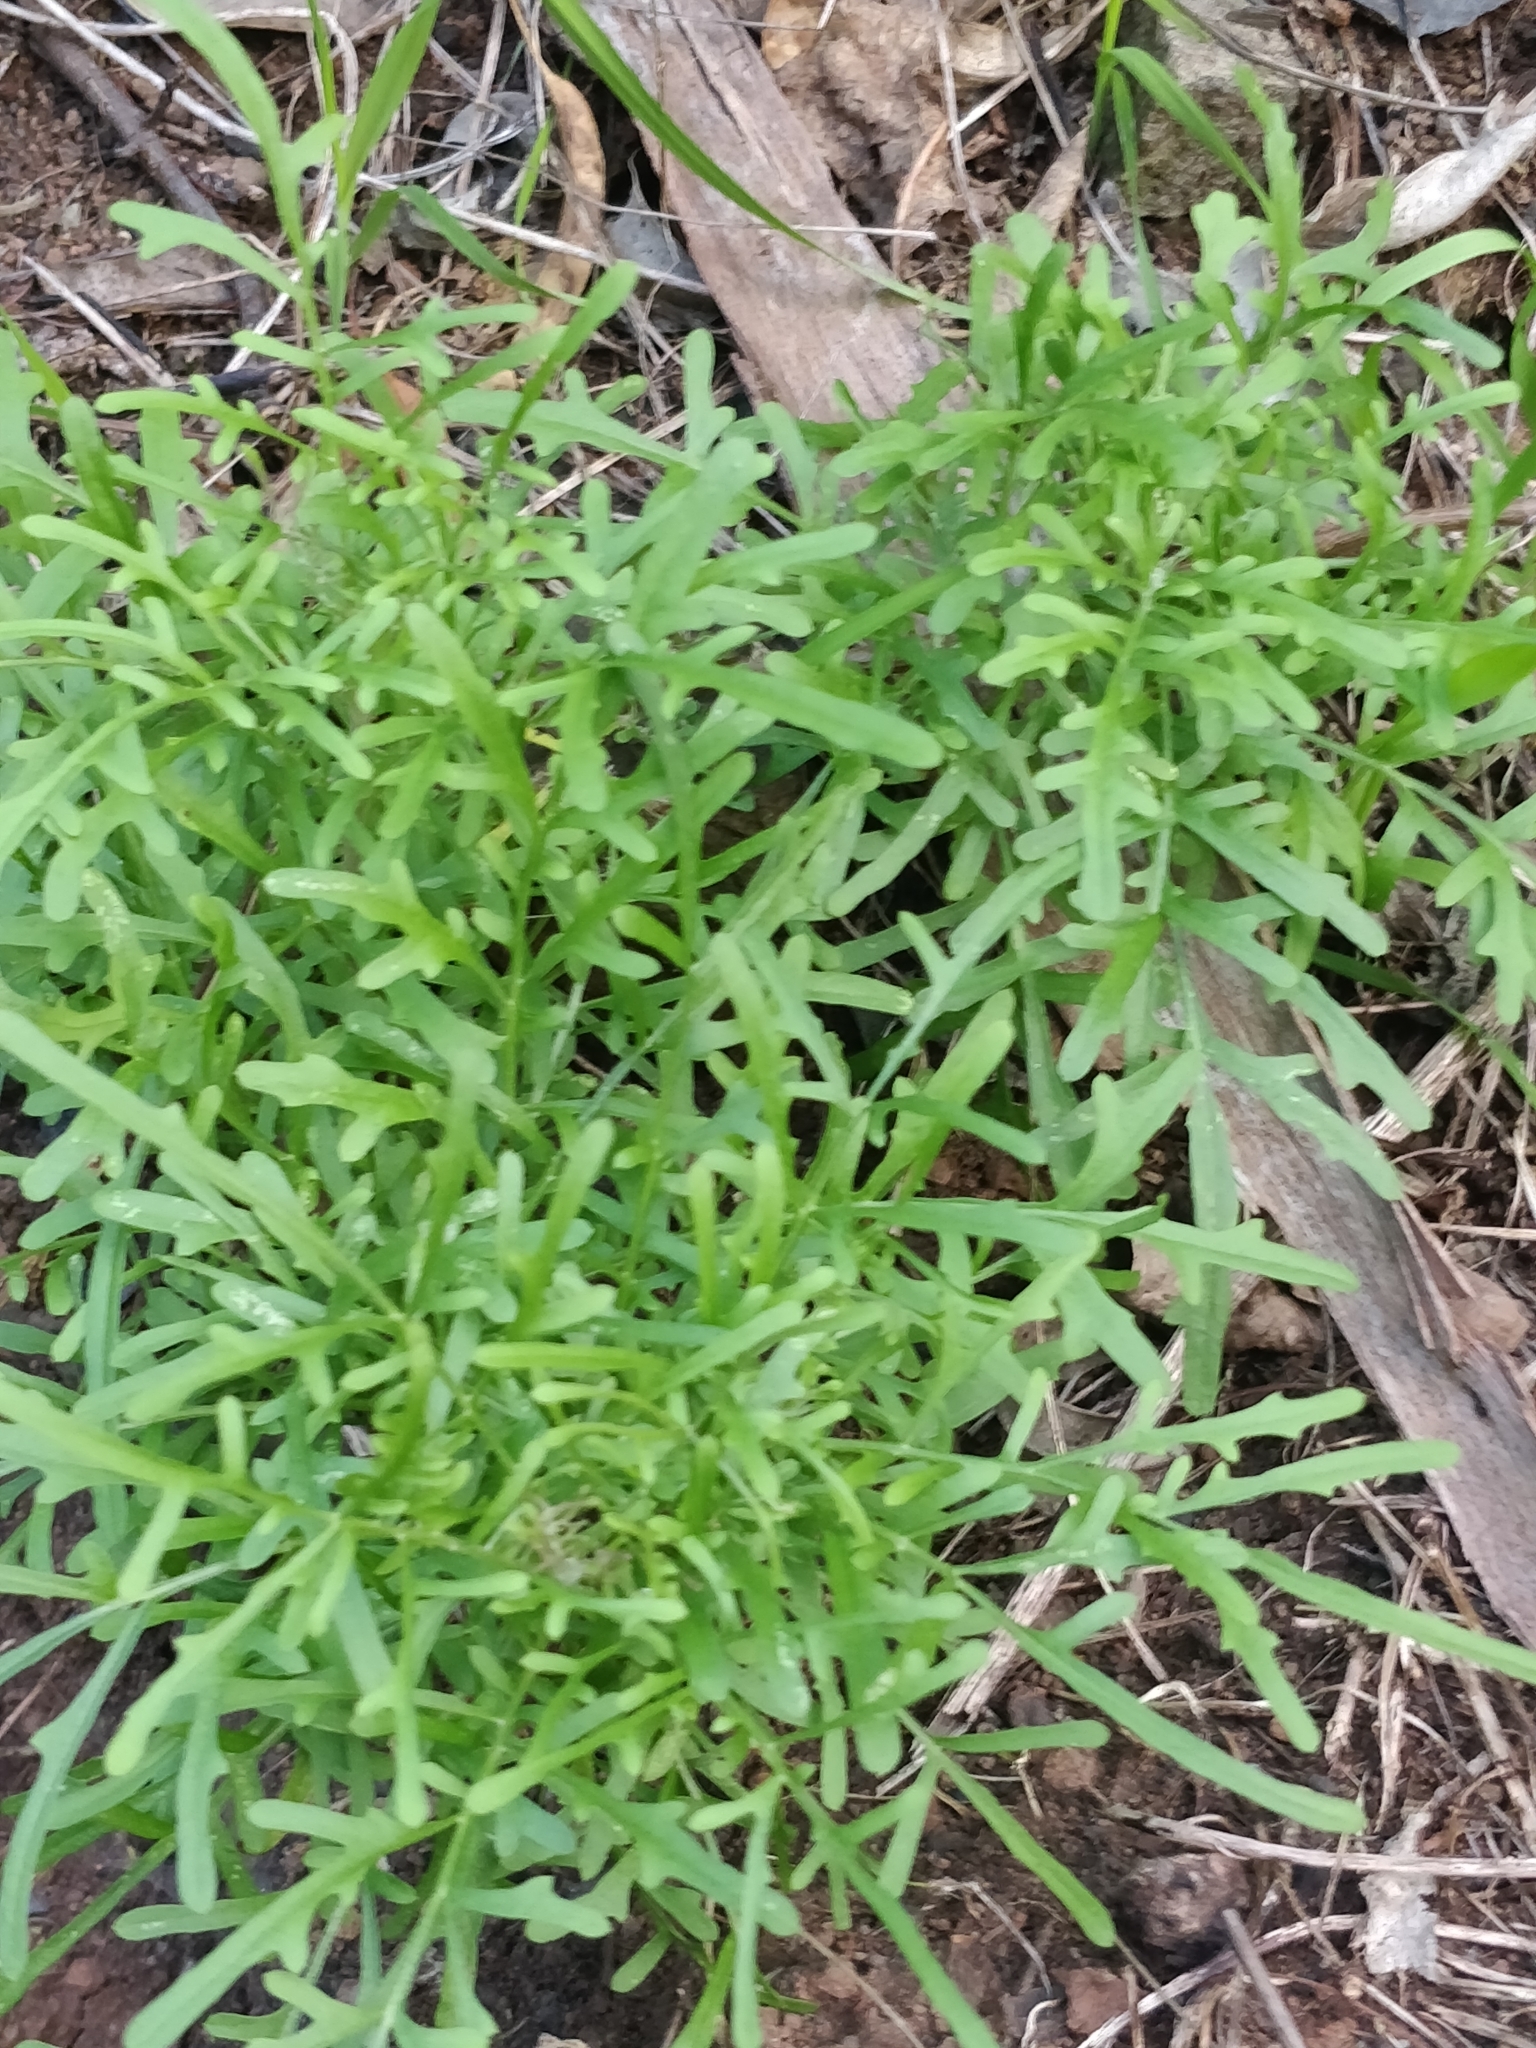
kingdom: Plantae
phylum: Tracheophyta
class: Magnoliopsida
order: Asterales
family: Asteraceae
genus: Tolpis
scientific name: Tolpis succulenta
